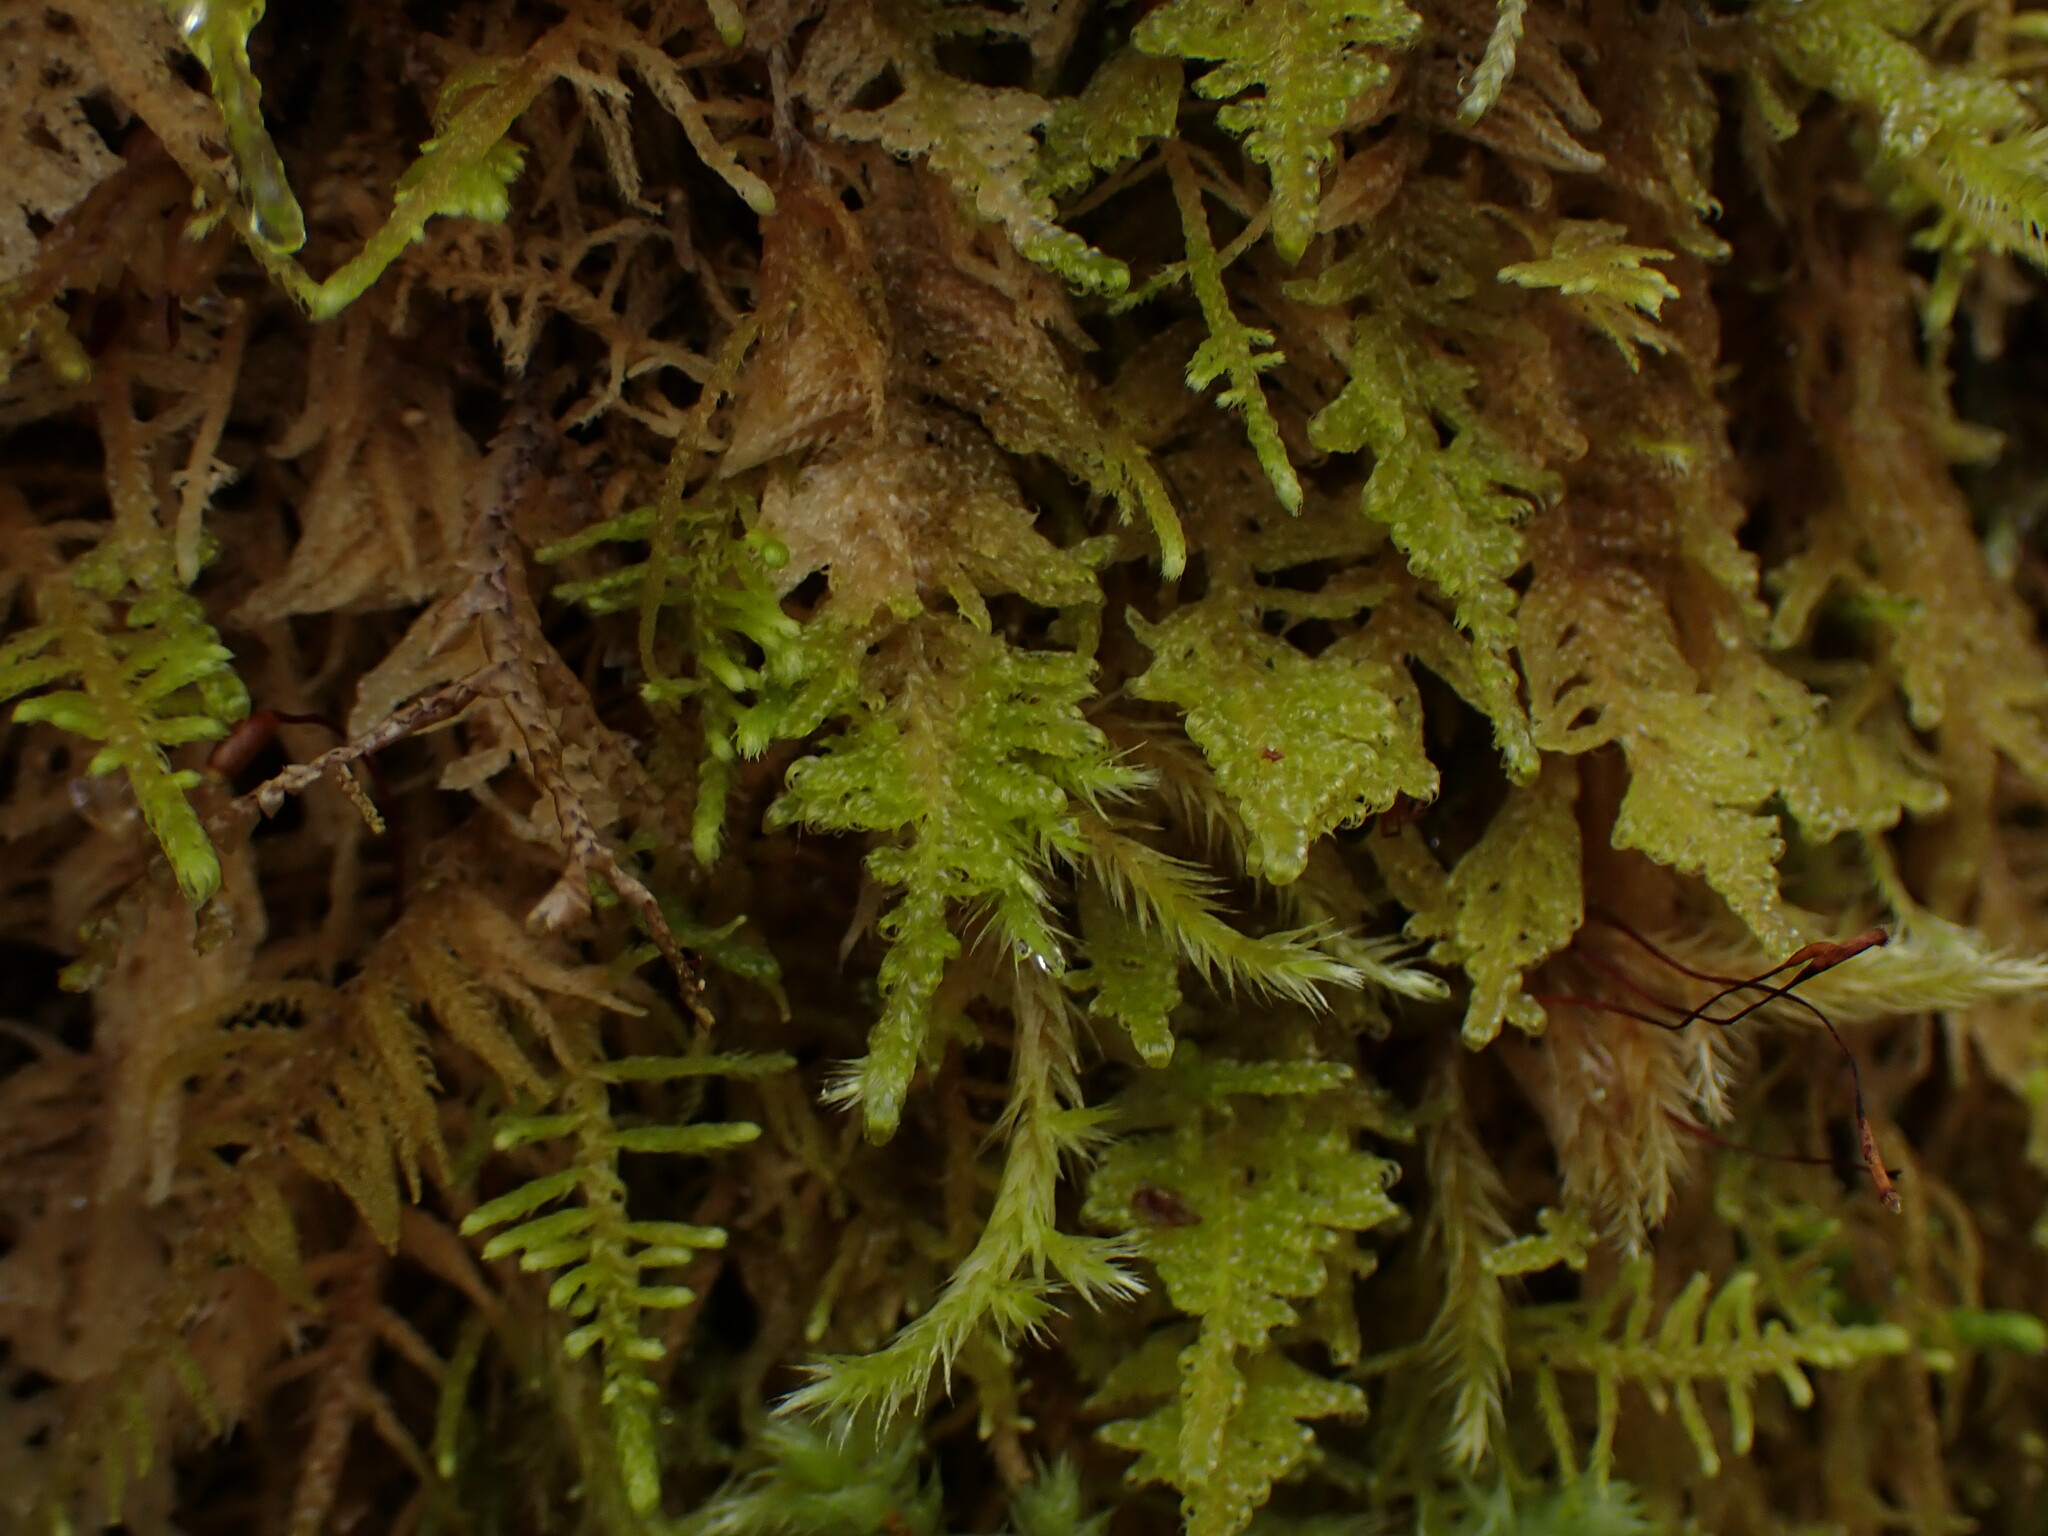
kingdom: Plantae
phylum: Bryophyta
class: Bryopsida
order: Hypnales
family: Stereodontaceae
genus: Stereodon
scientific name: Stereodon subimponens
